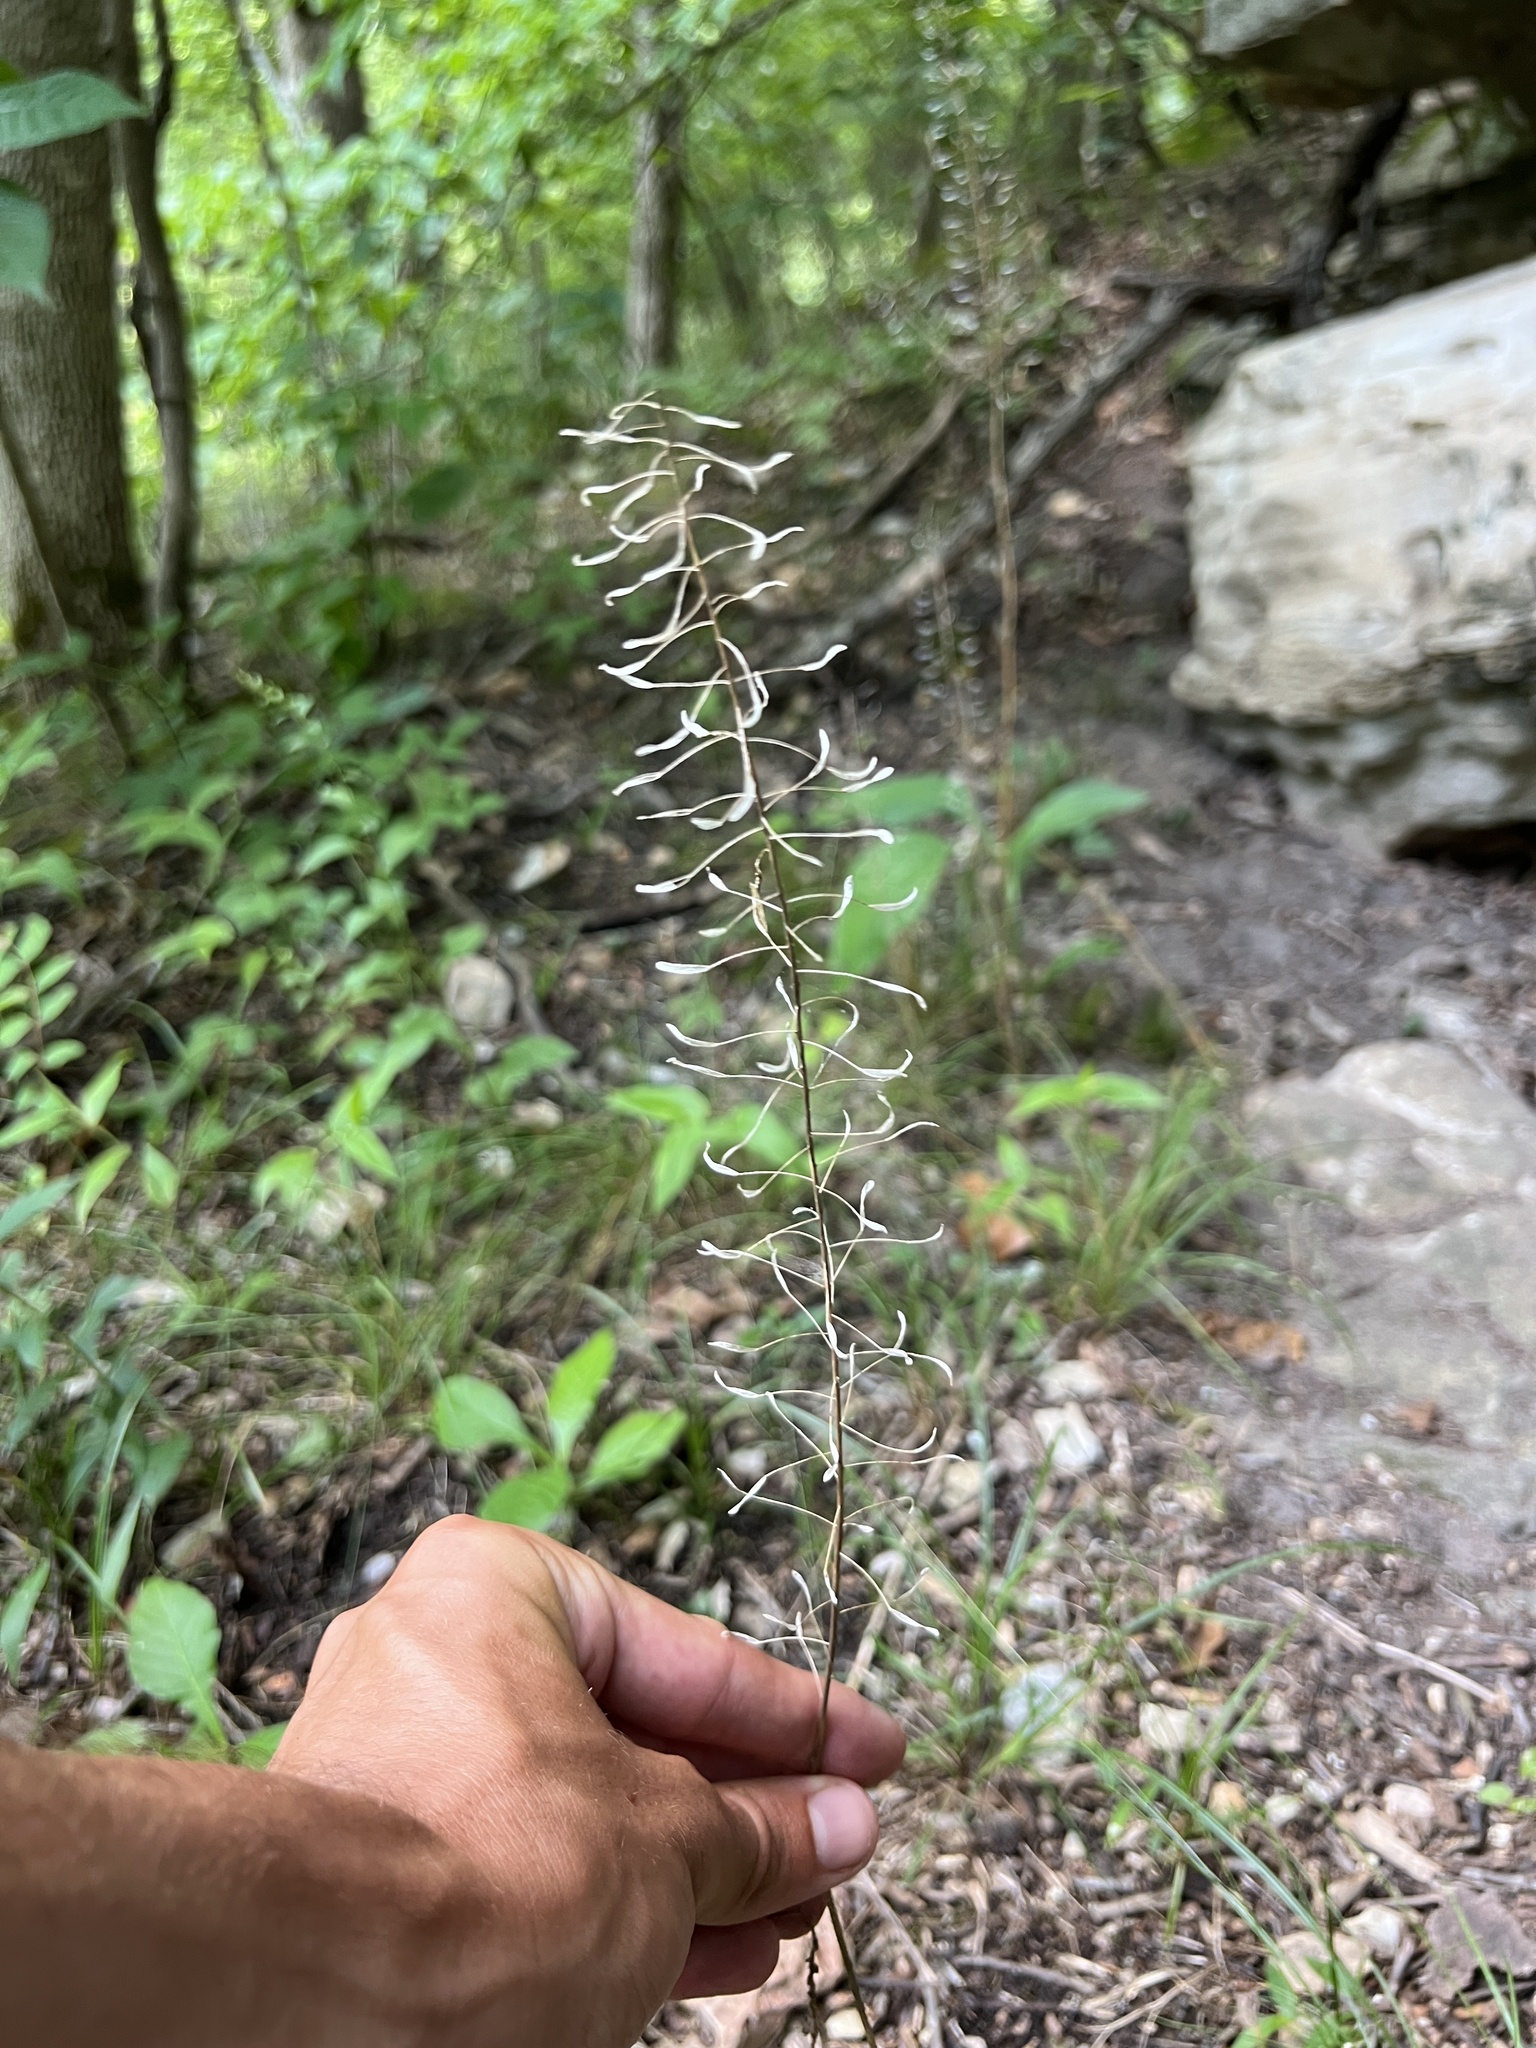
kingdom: Plantae
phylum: Tracheophyta
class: Magnoliopsida
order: Brassicales
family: Brassicaceae
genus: Descurainia
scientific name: Descurainia pinnata
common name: Western tansy mustard
